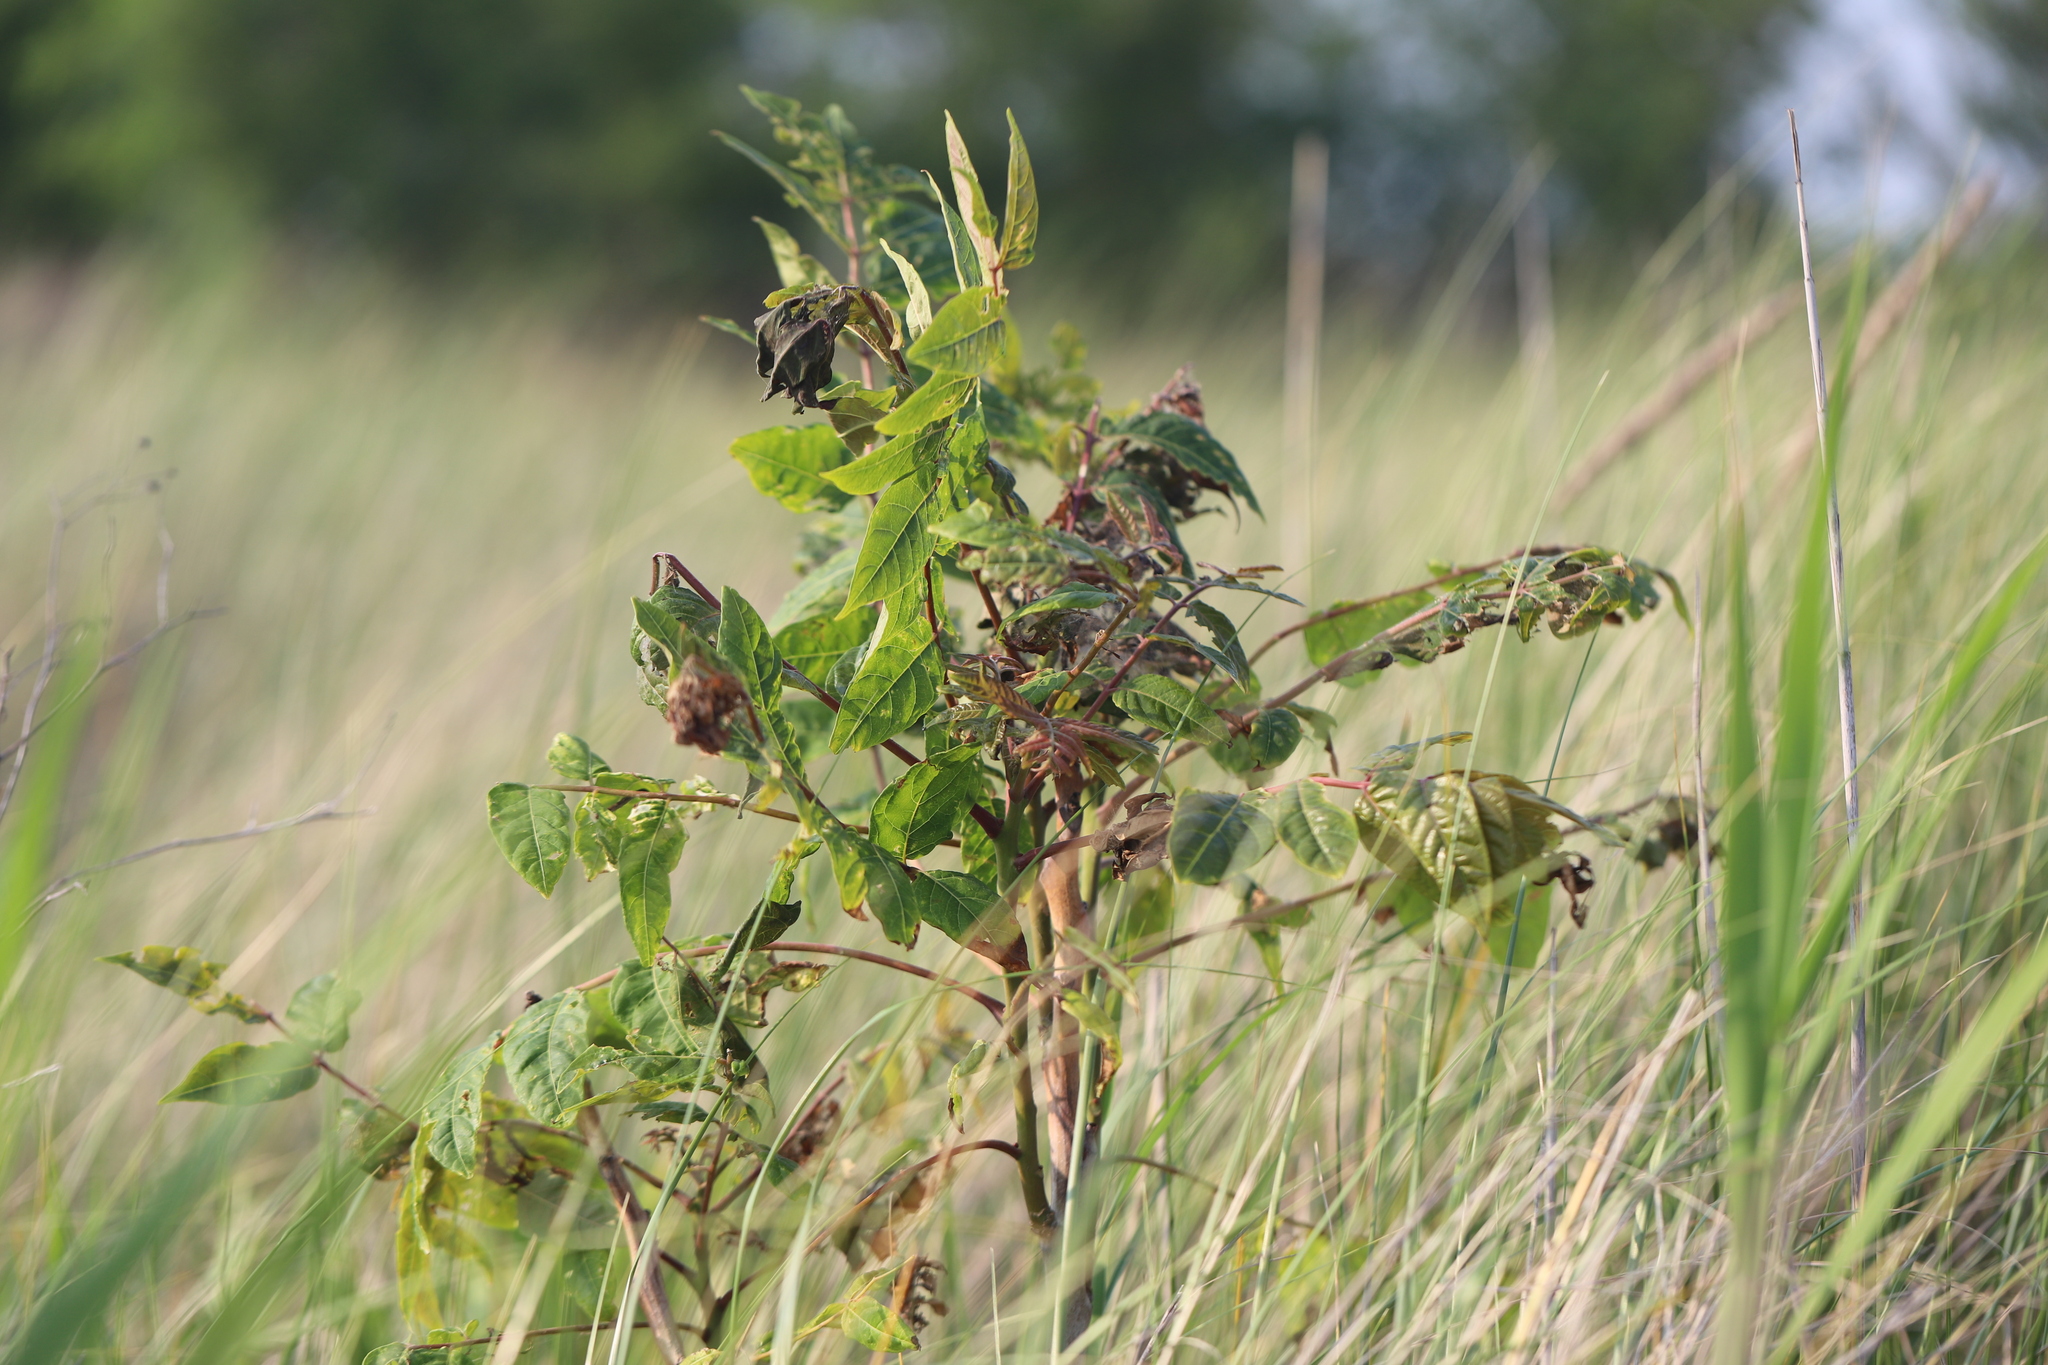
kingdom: Plantae
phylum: Tracheophyta
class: Magnoliopsida
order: Sapindales
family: Simaroubaceae
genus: Ailanthus
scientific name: Ailanthus altissima
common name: Tree-of-heaven
